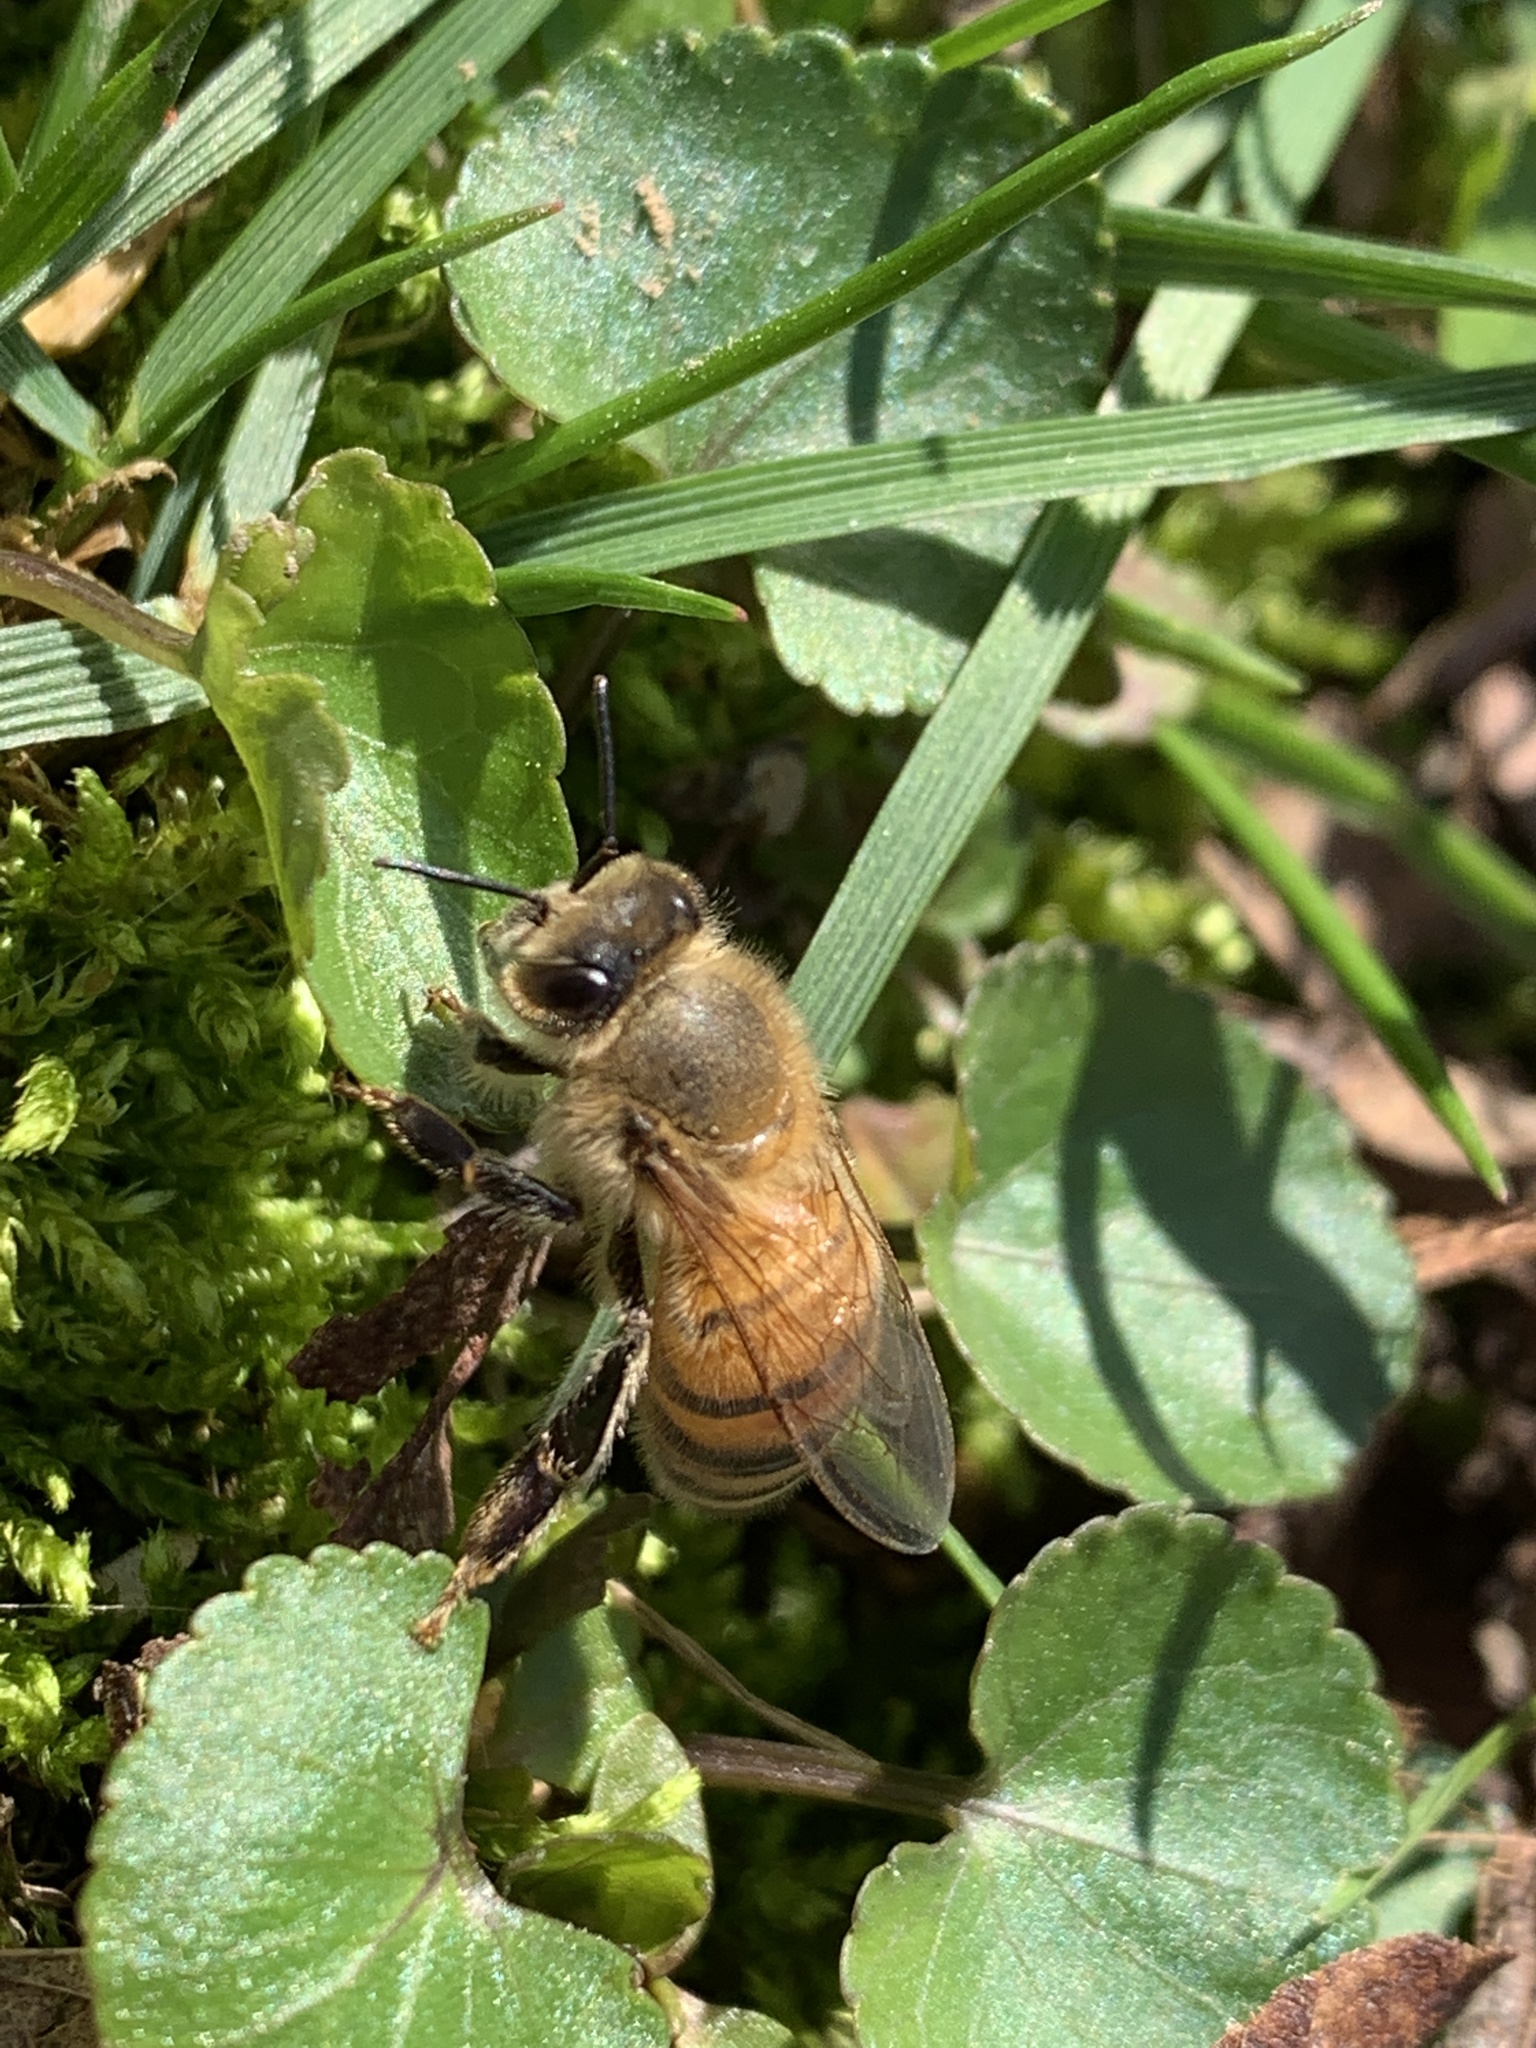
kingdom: Animalia
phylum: Arthropoda
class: Insecta
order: Hymenoptera
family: Apidae
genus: Apis
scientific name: Apis mellifera
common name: Honey bee
